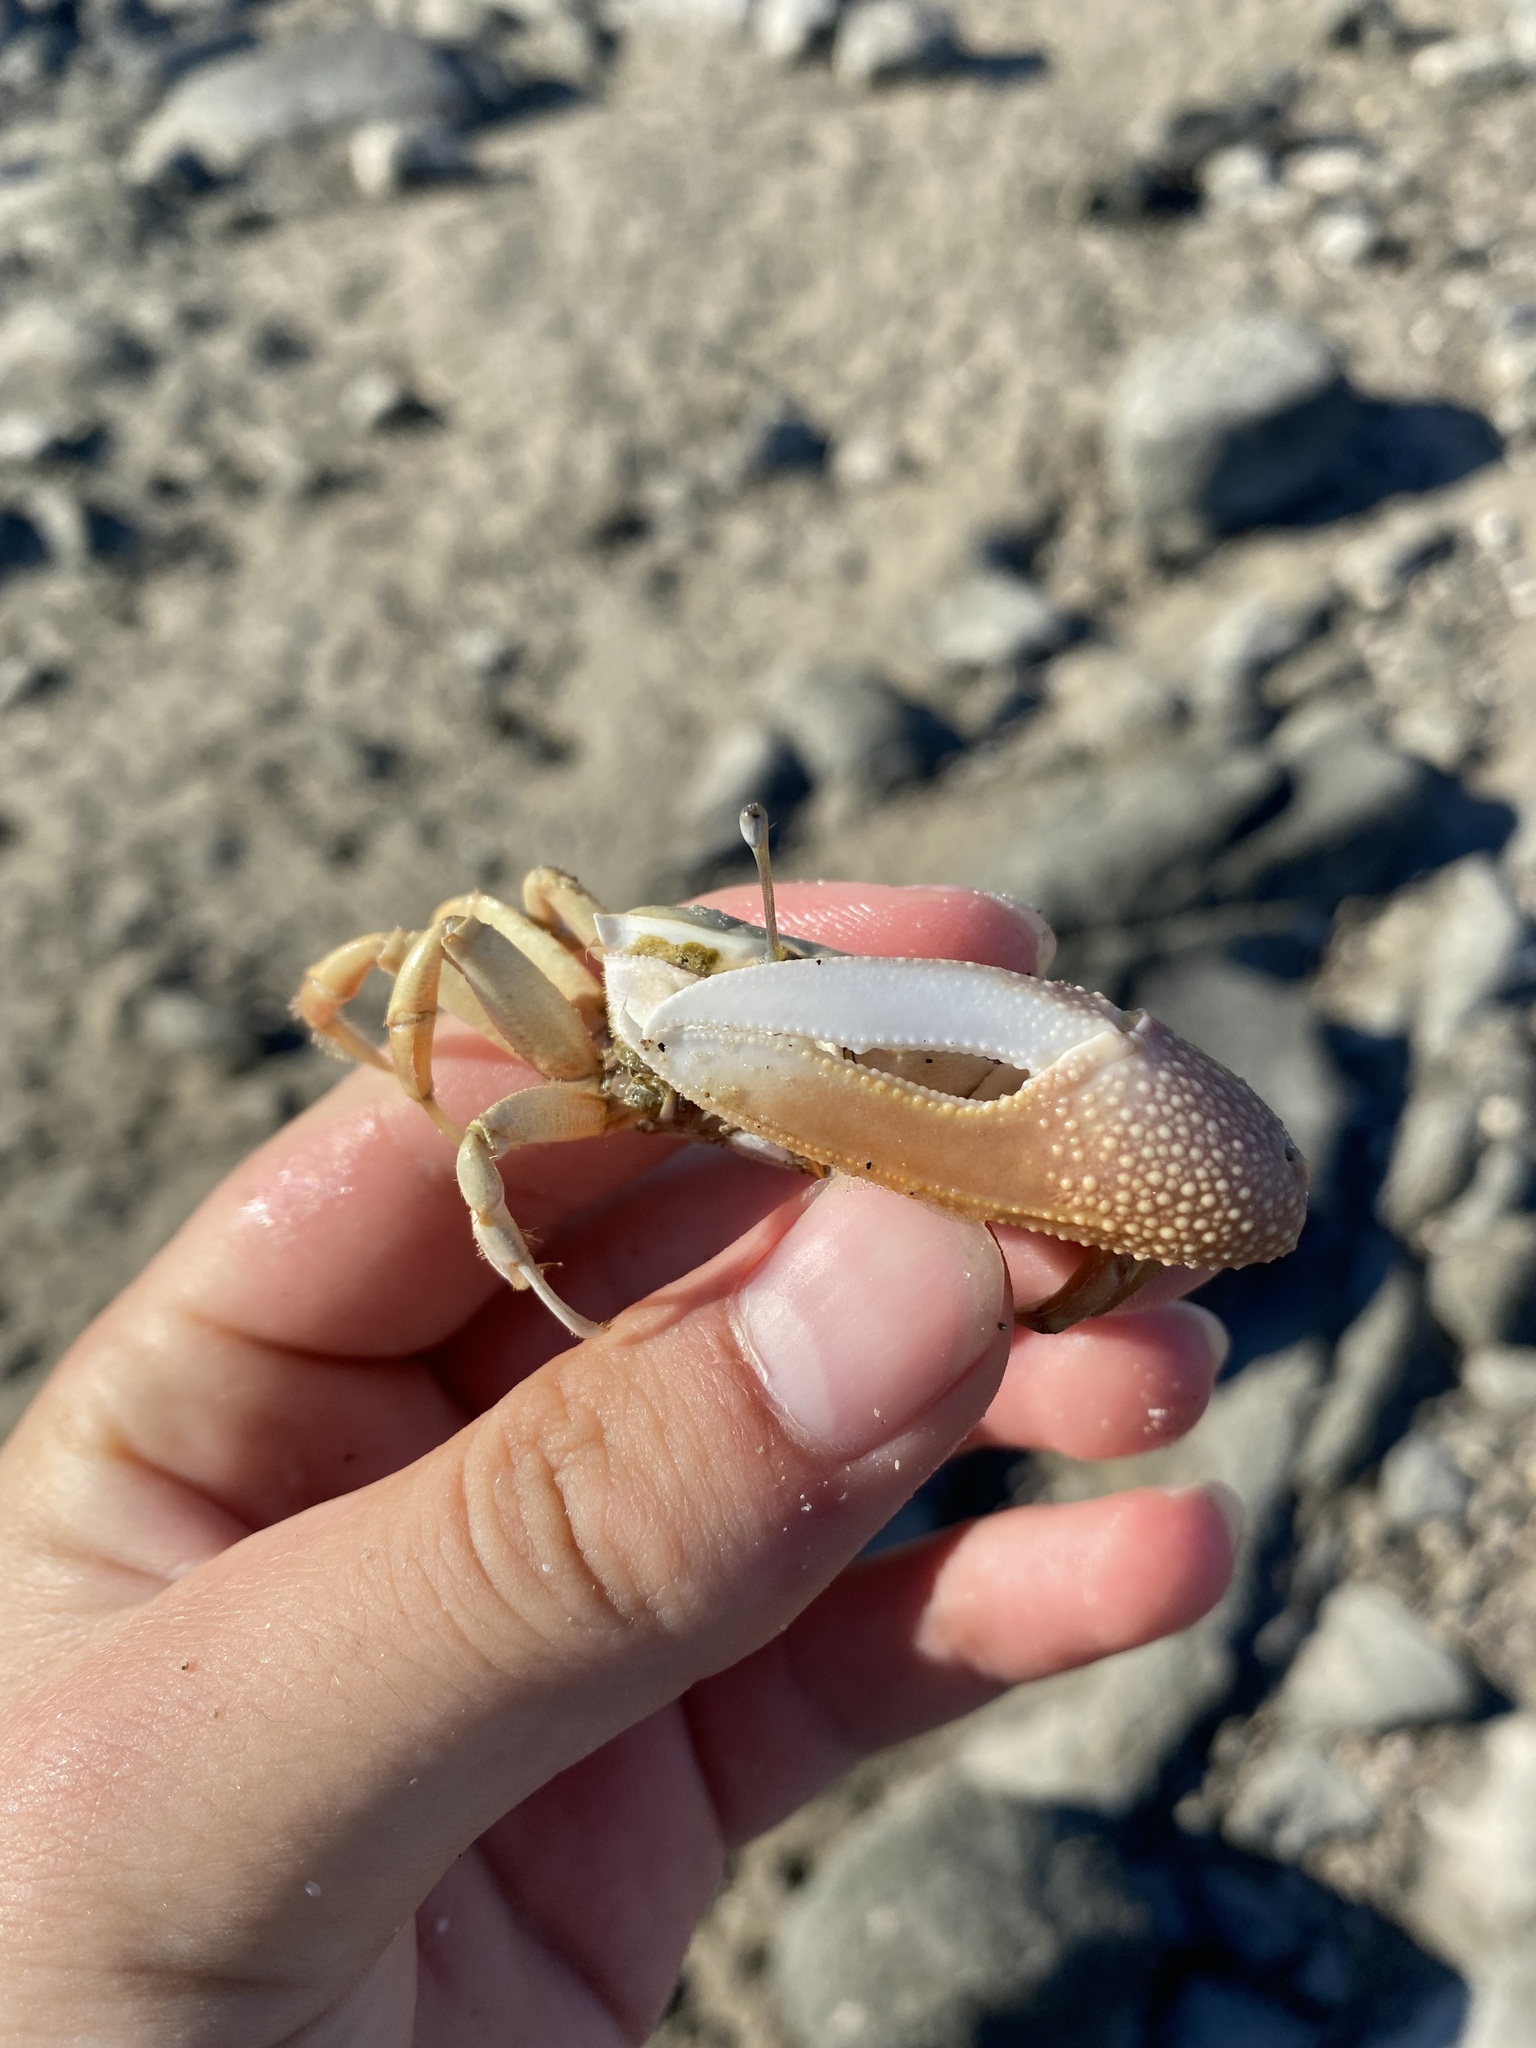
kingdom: Animalia
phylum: Arthropoda
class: Malacostraca
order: Decapoda
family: Ocypodidae
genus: Uca
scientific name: Uca princeps
